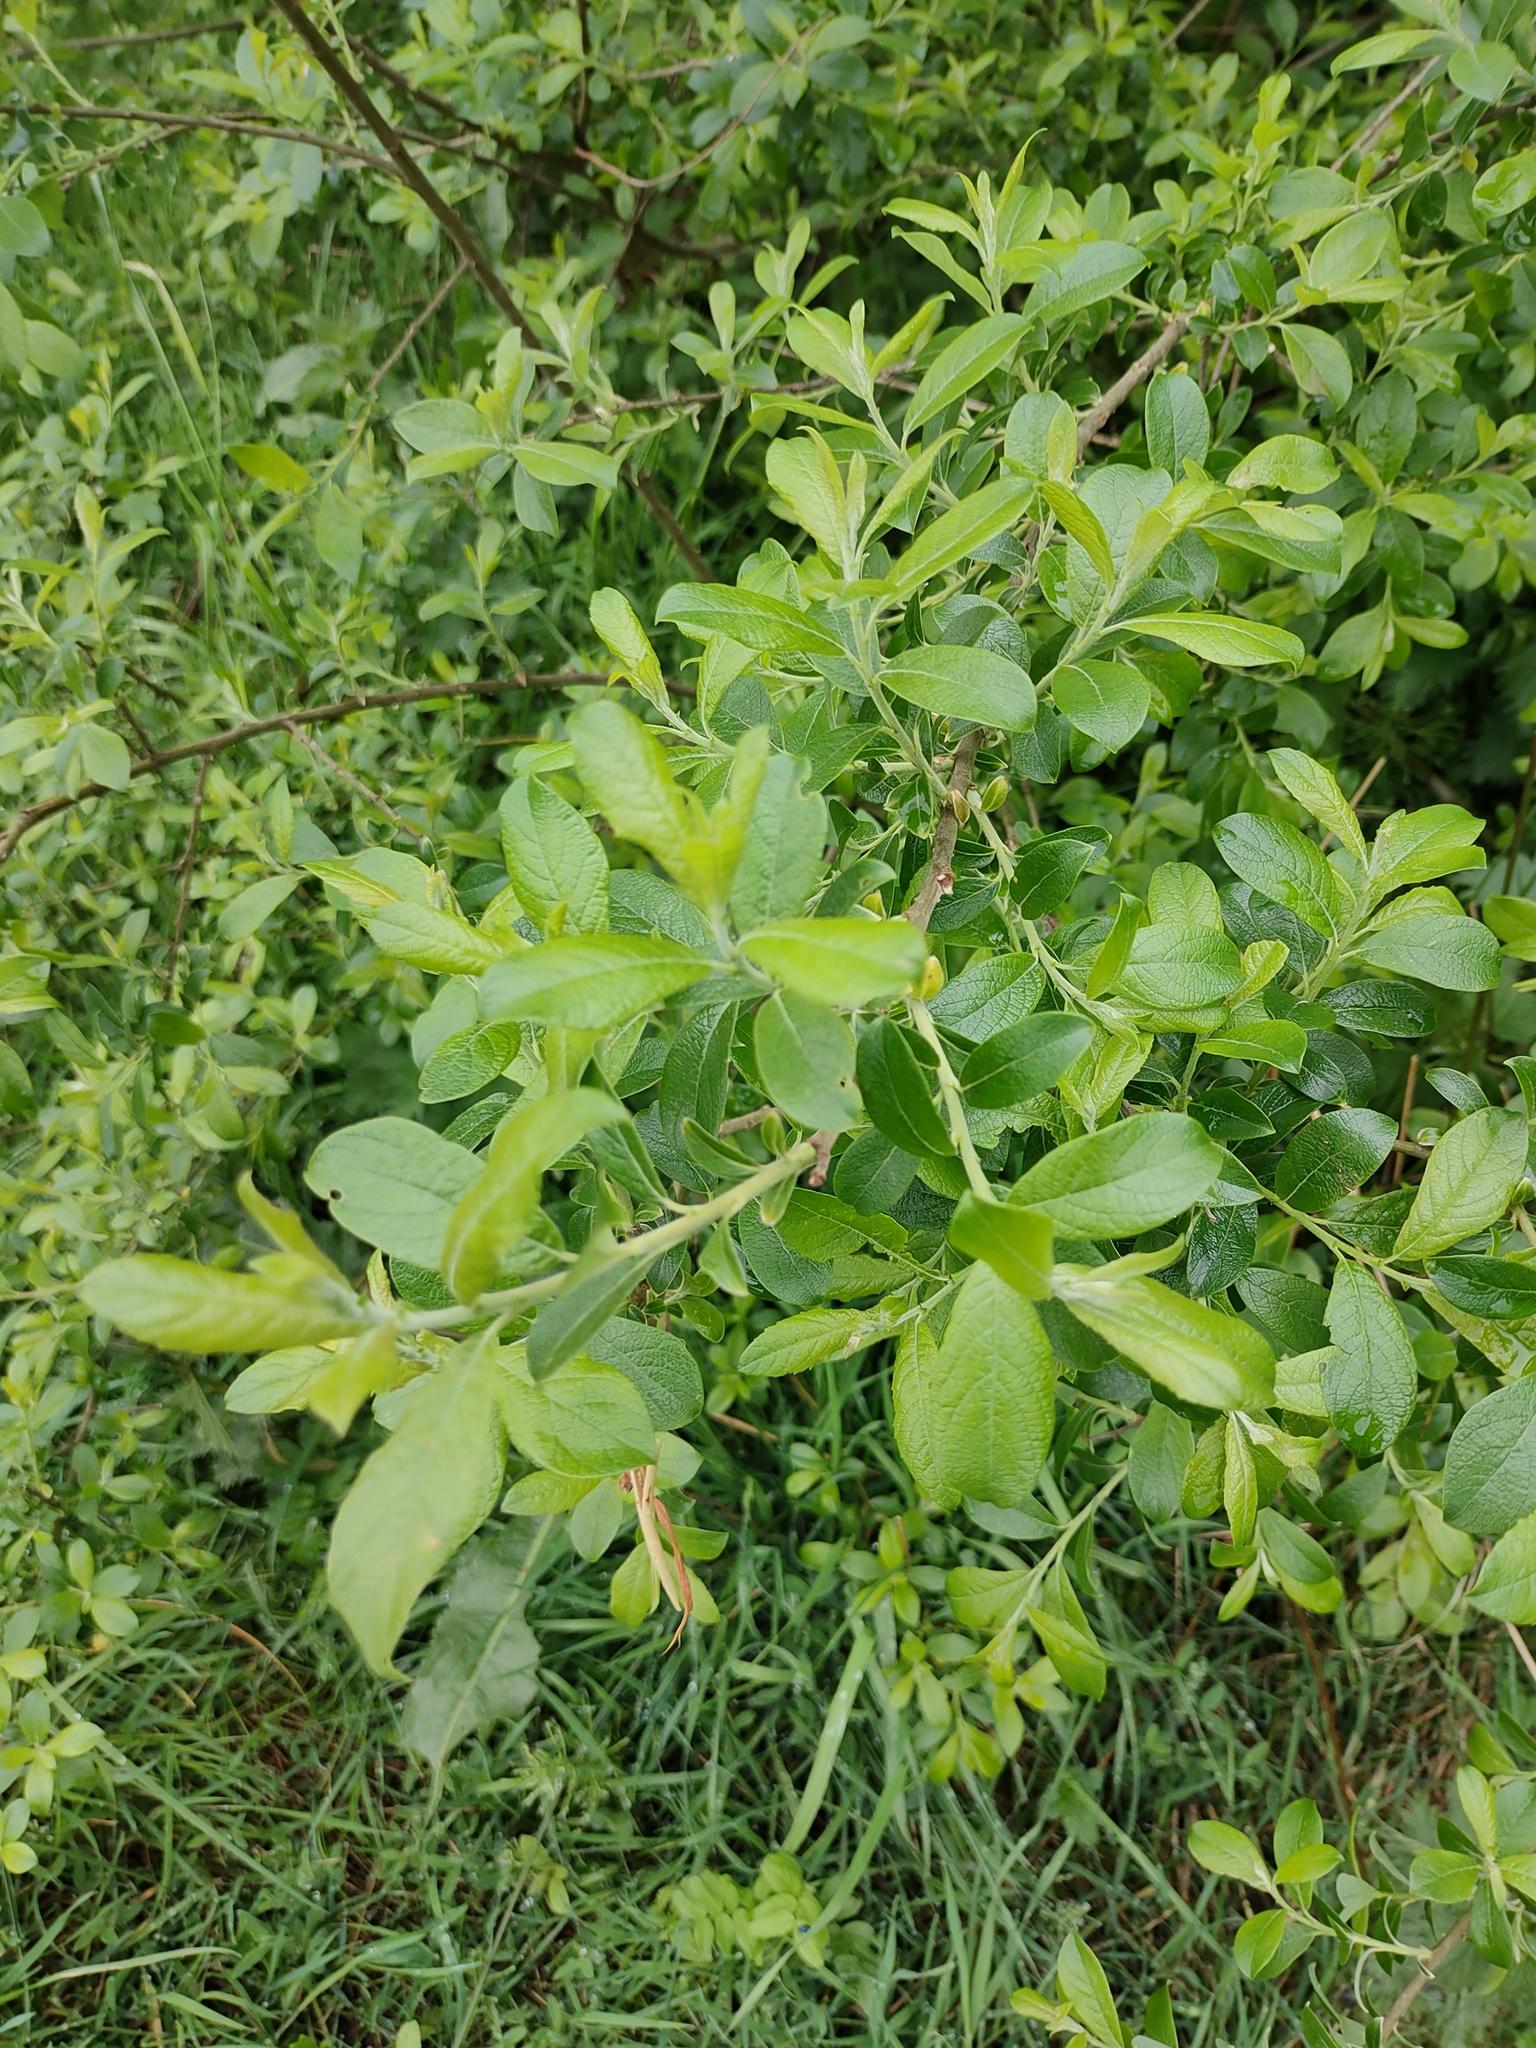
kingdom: Plantae
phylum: Tracheophyta
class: Magnoliopsida
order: Malpighiales
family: Salicaceae
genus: Salix
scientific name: Salix cinerea
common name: Common sallow
